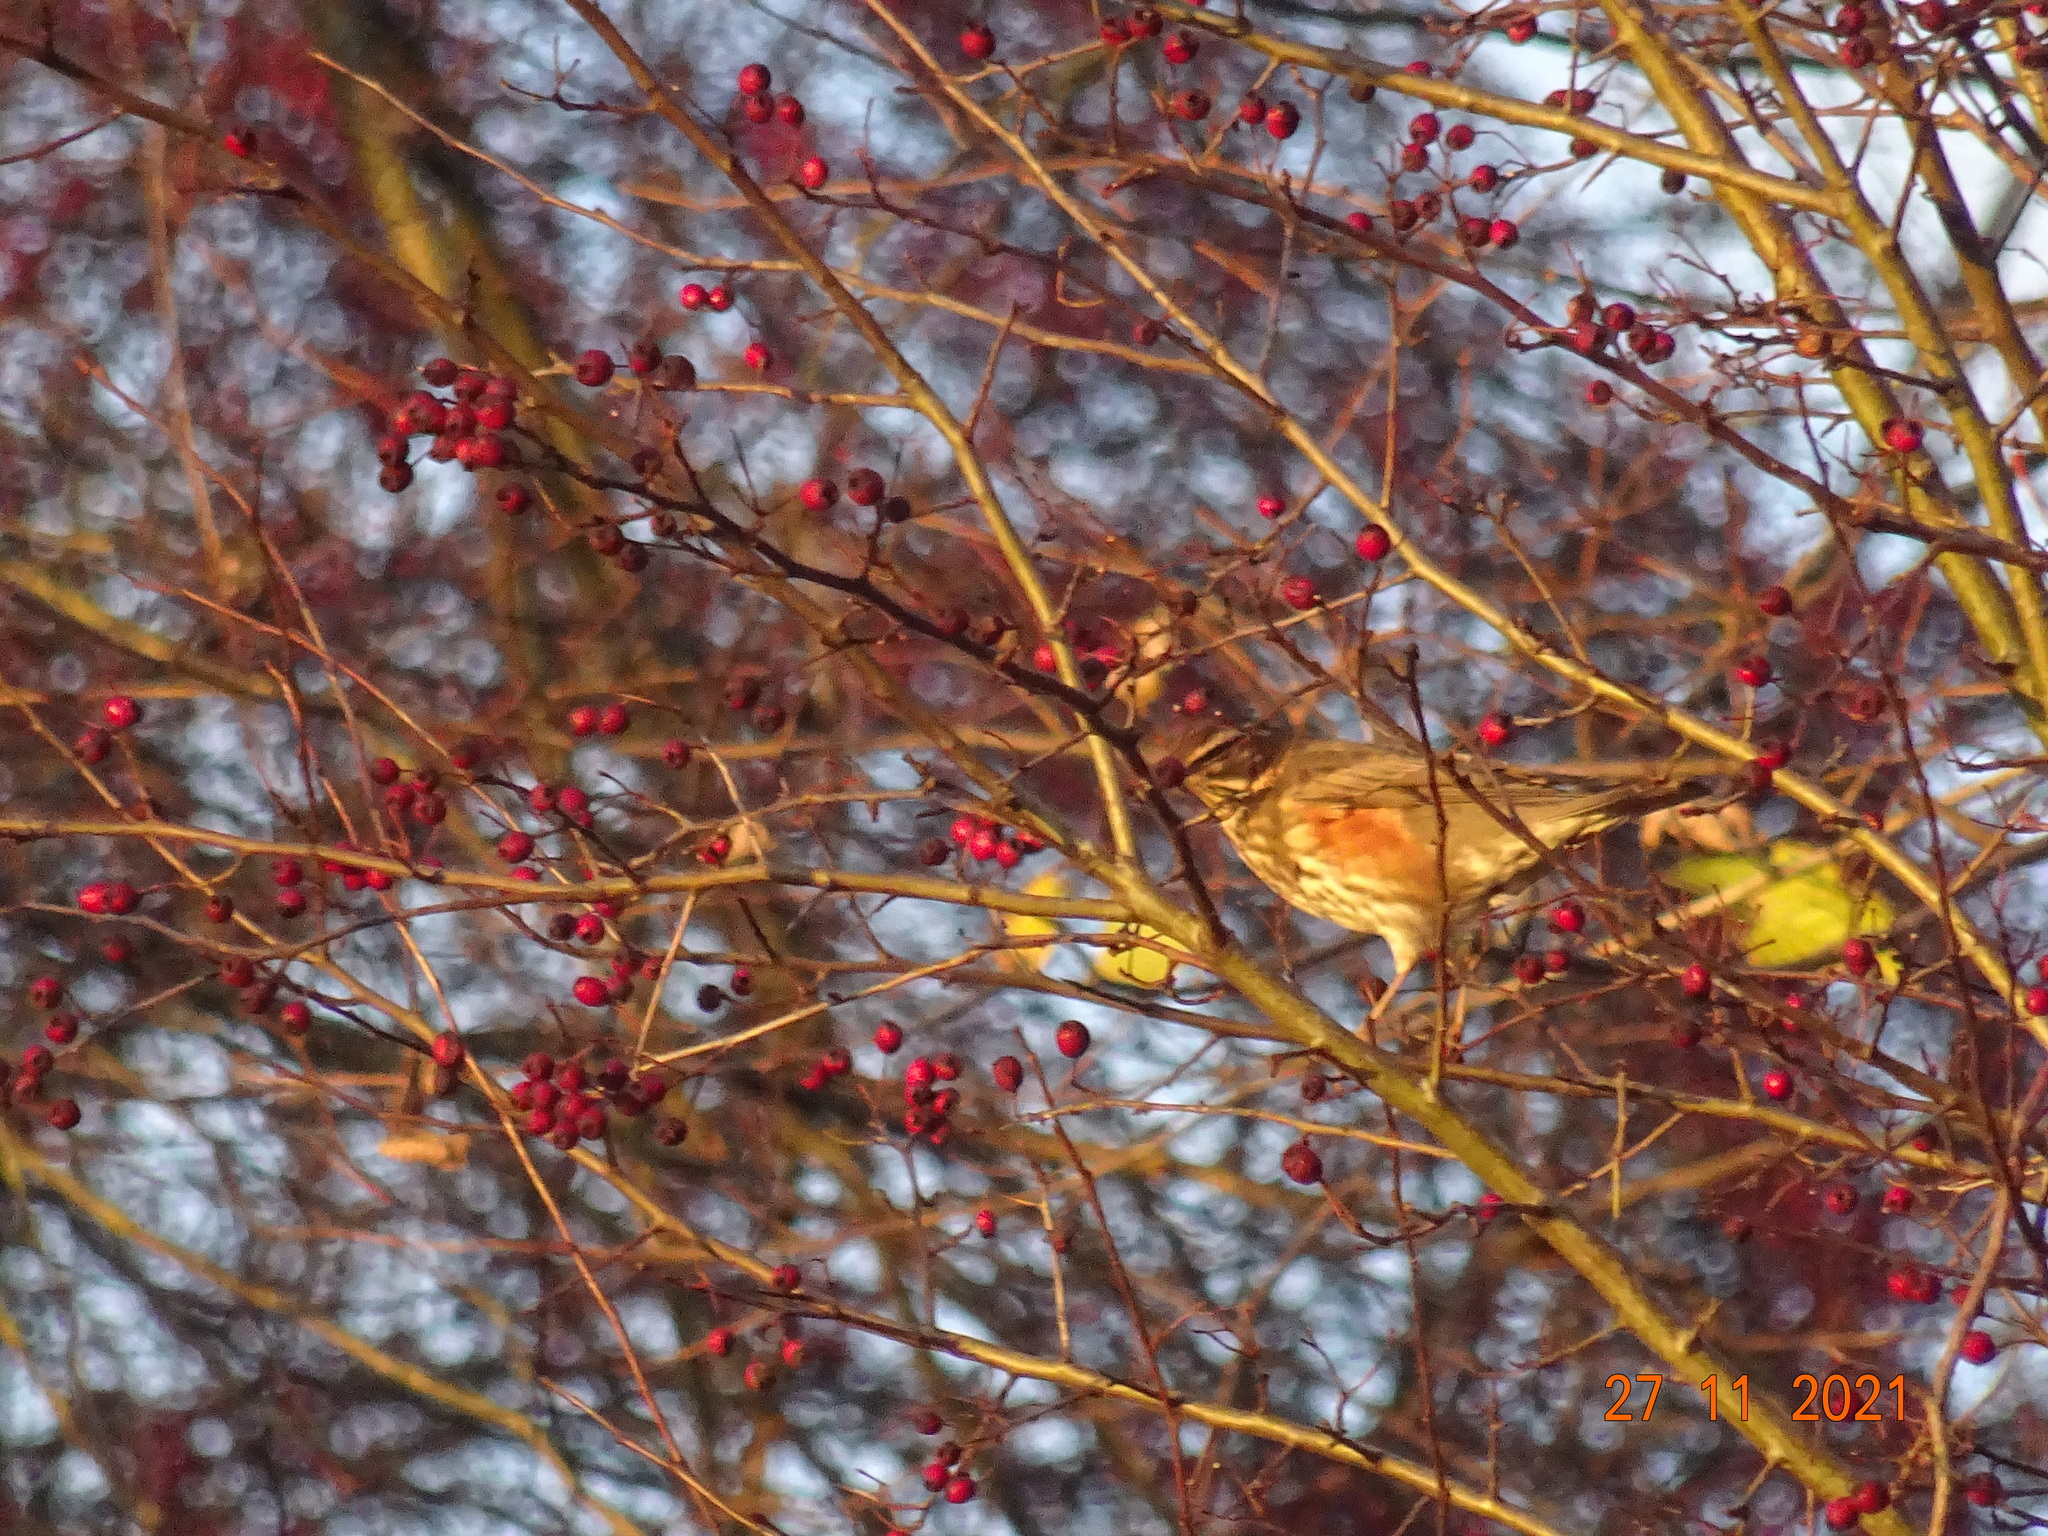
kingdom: Animalia
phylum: Chordata
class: Aves
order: Passeriformes
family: Turdidae
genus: Turdus
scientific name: Turdus iliacus
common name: Redwing
